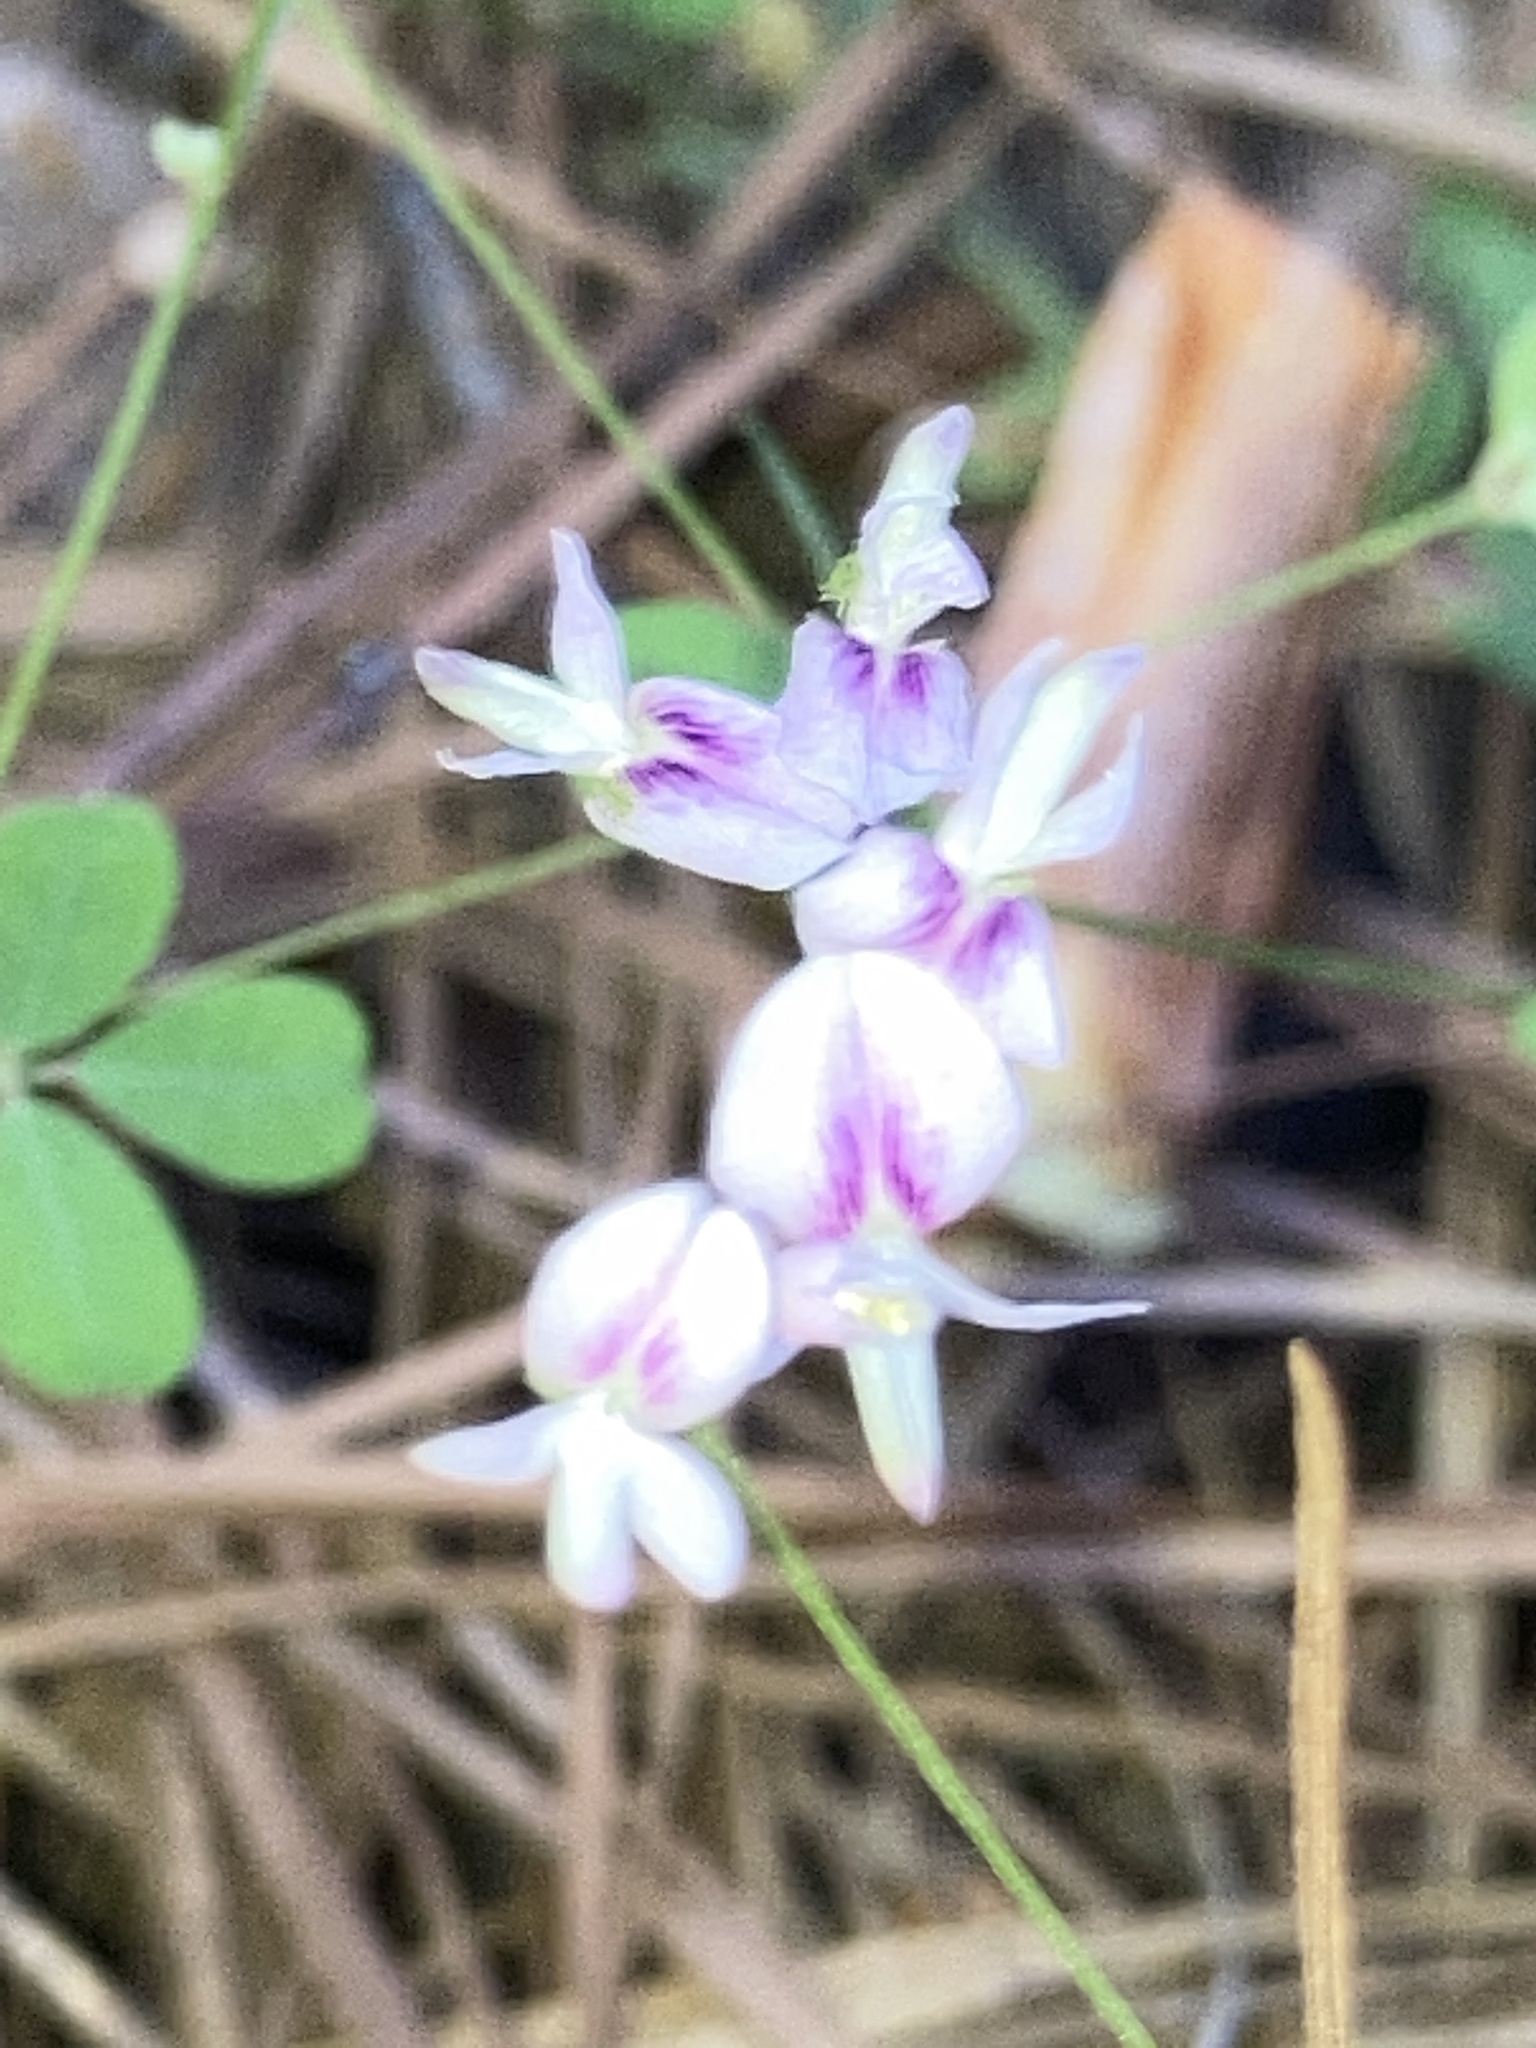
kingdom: Plantae
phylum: Tracheophyta
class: Magnoliopsida
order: Fabales
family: Fabaceae
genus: Lespedeza
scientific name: Lespedeza repens
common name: Creeping bush-clover
